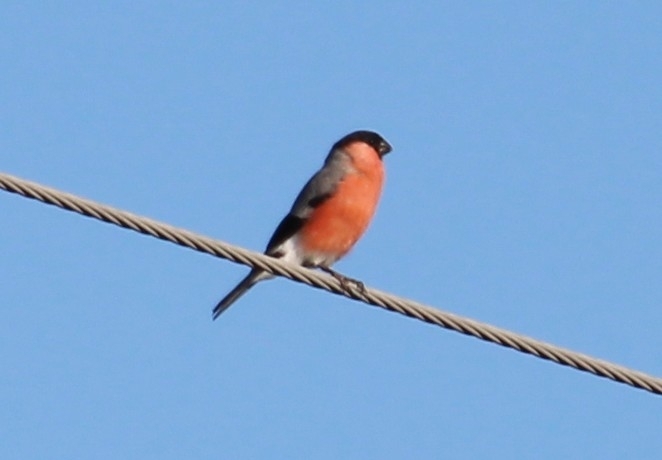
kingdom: Animalia
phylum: Chordata
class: Aves
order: Passeriformes
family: Fringillidae
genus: Pyrrhula
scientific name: Pyrrhula pyrrhula
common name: Eurasian bullfinch
